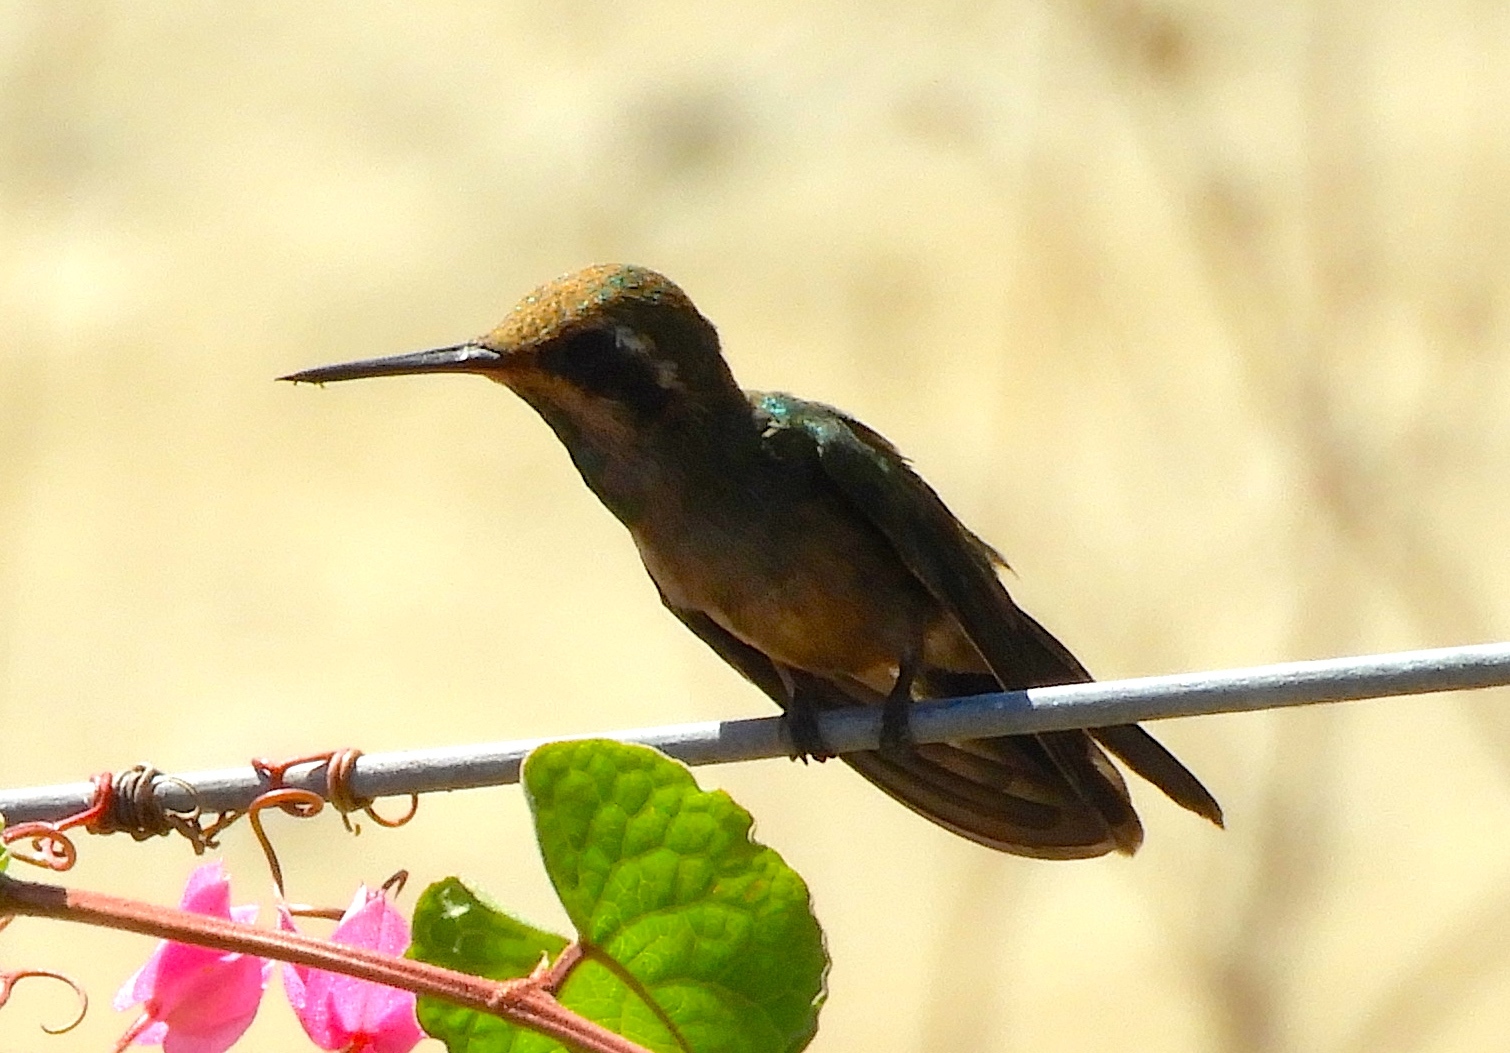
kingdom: Animalia
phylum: Chordata
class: Aves
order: Apodiformes
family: Trochilidae
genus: Cynanthus
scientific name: Cynanthus latirostris
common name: Broad-billed hummingbird
